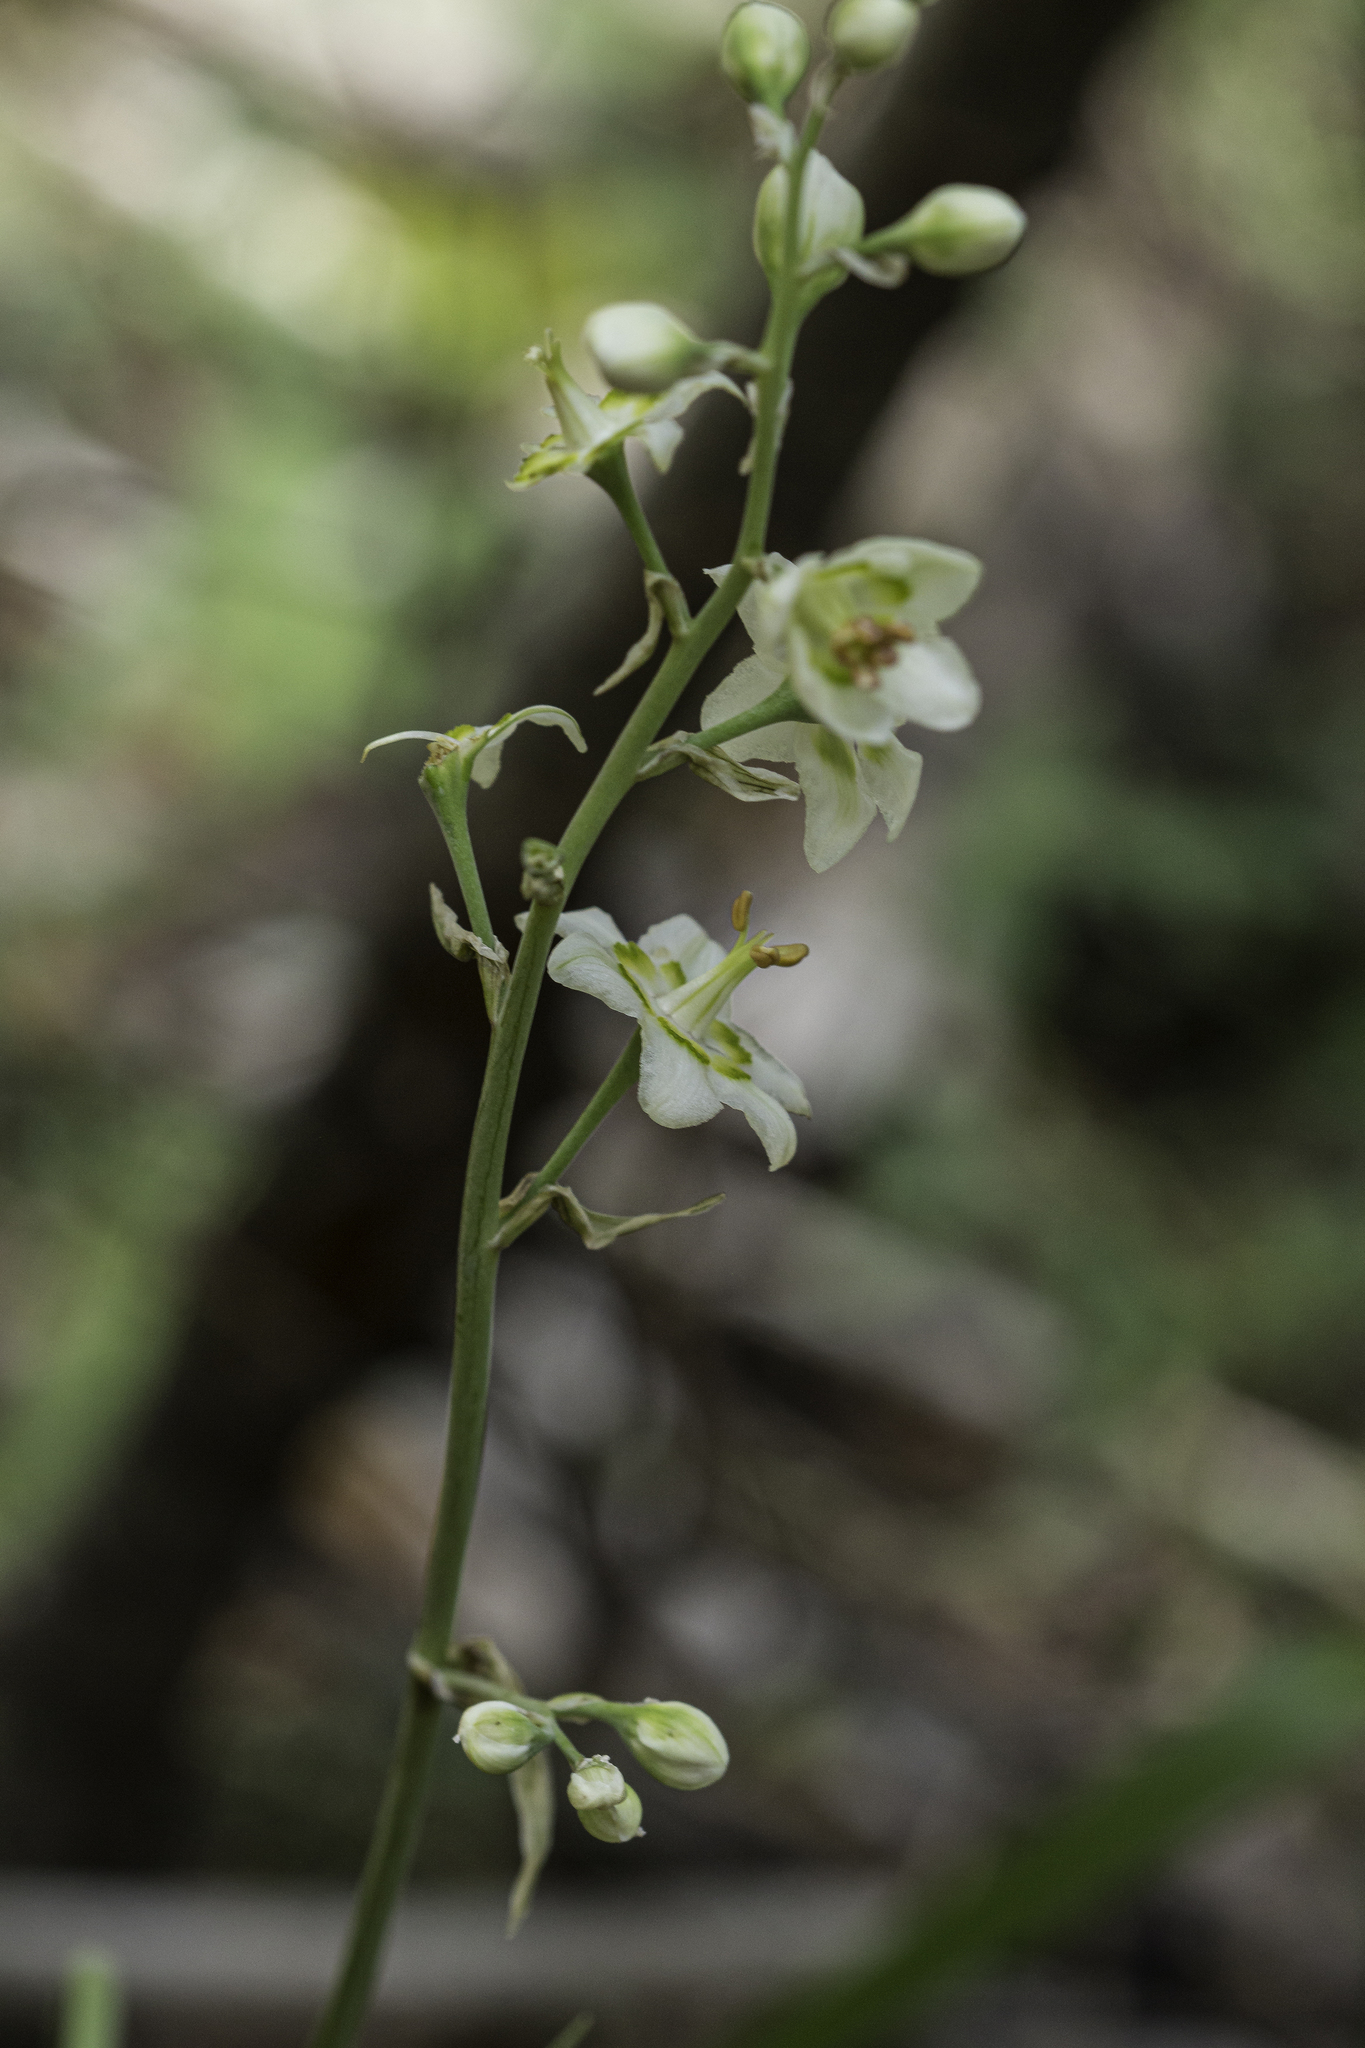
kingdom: Plantae
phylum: Tracheophyta
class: Liliopsida
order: Liliales
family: Melanthiaceae
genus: Anticlea
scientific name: Anticlea elegans
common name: Mountain death camas
